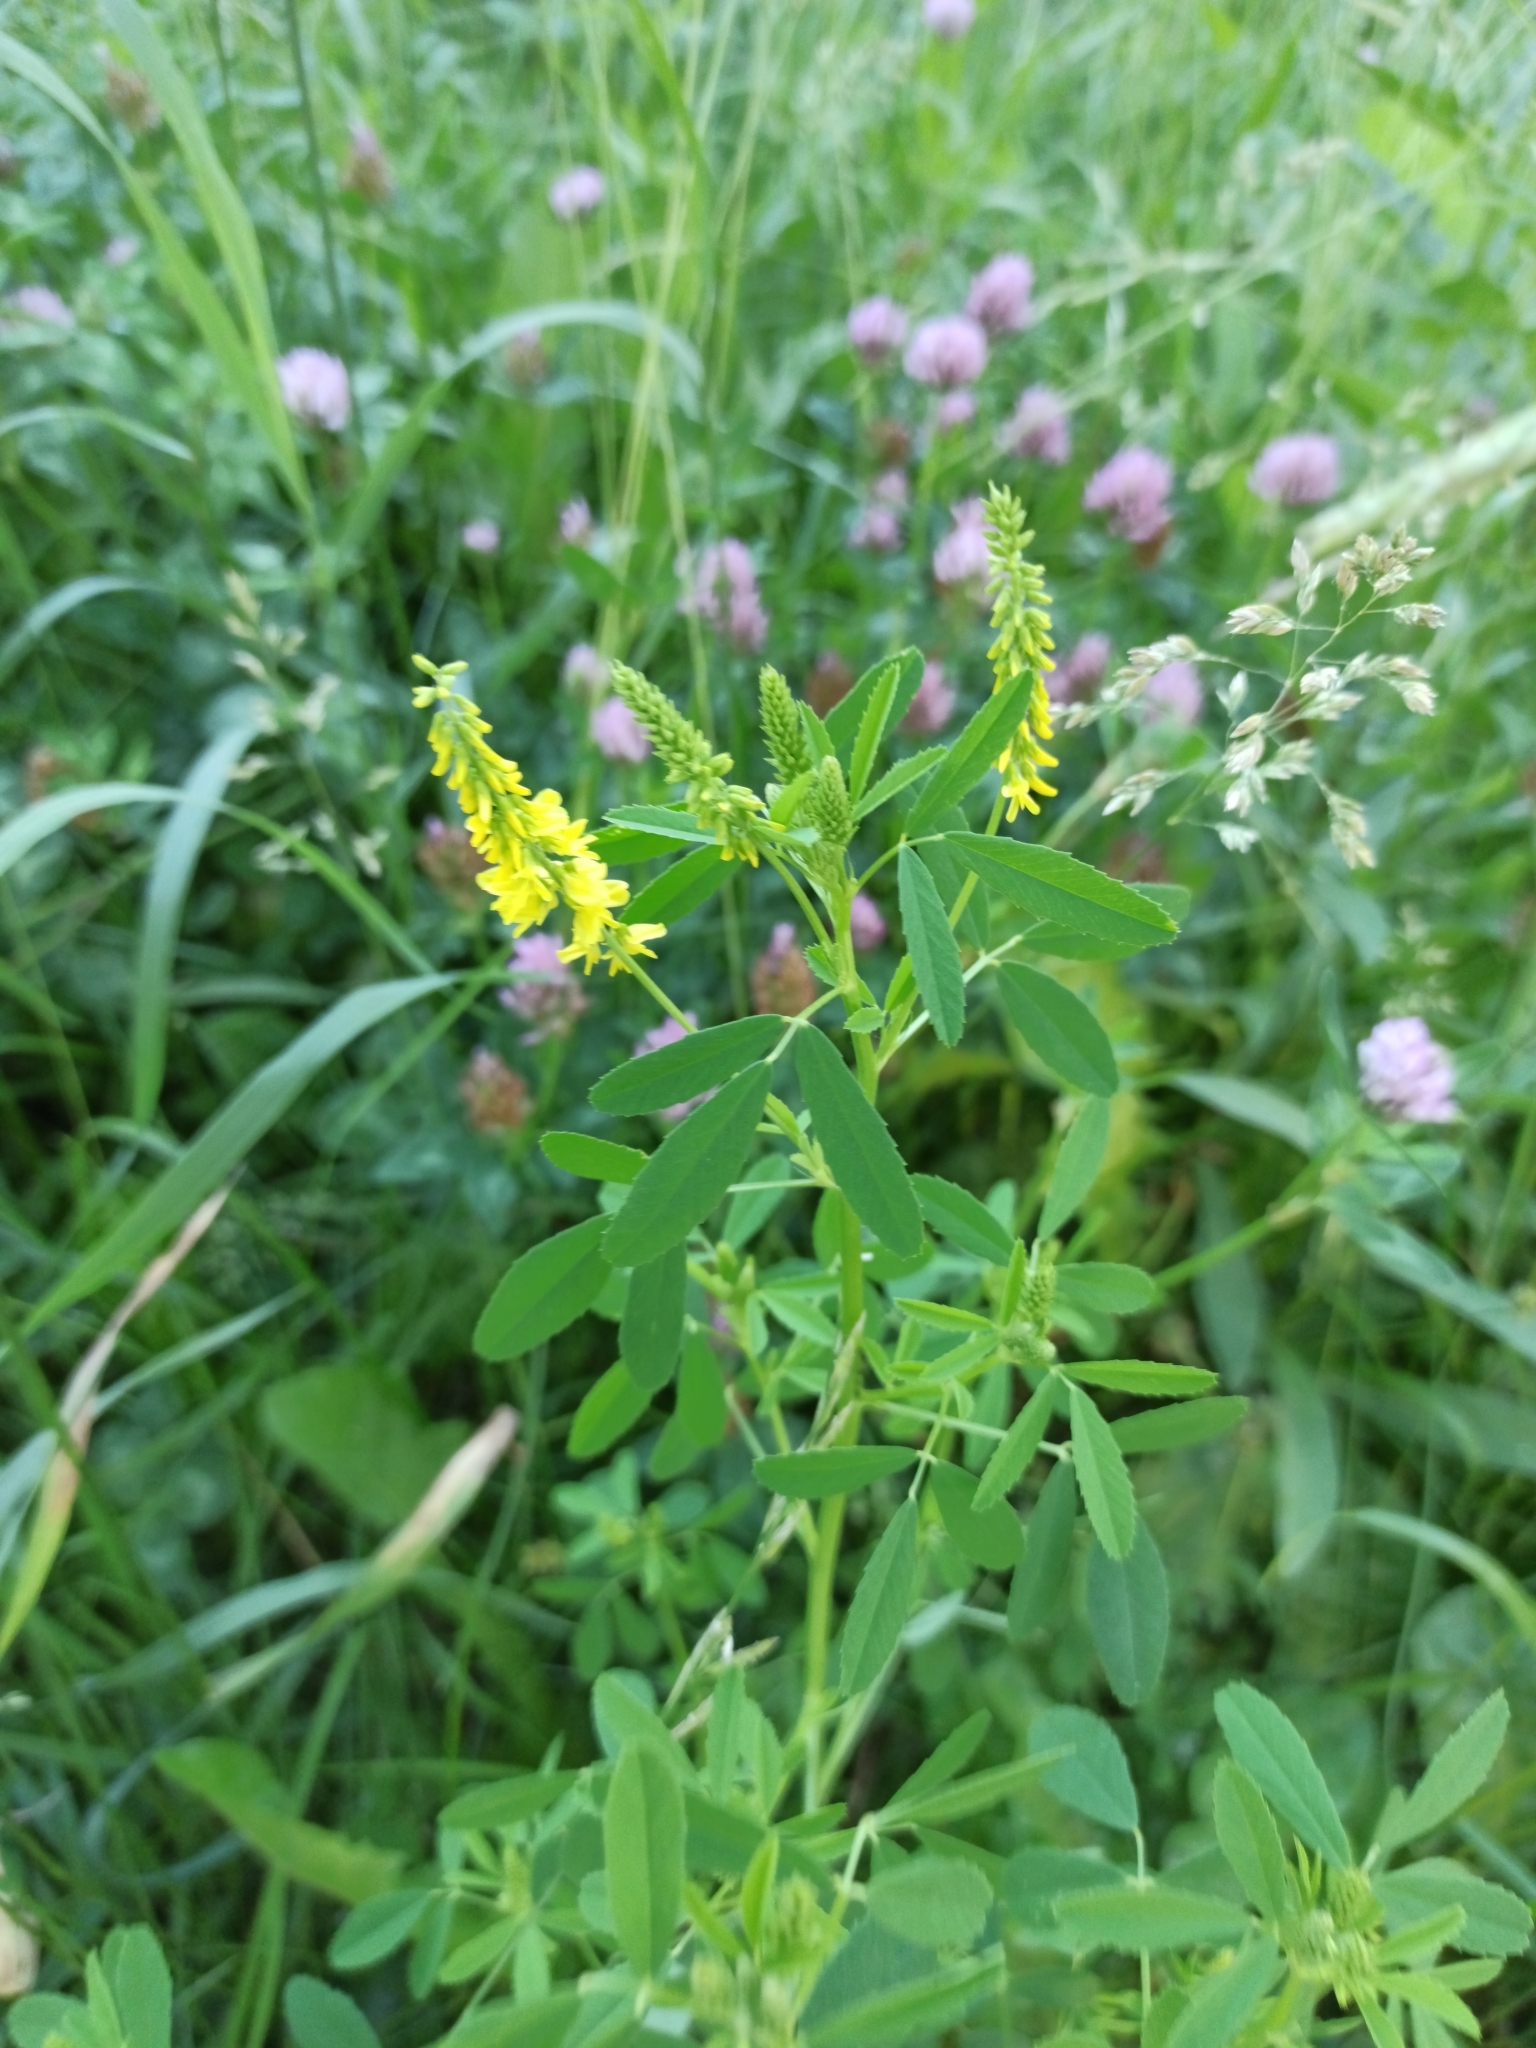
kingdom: Plantae
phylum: Tracheophyta
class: Magnoliopsida
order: Fabales
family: Fabaceae
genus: Melilotus
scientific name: Melilotus officinalis
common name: Sweetclover
